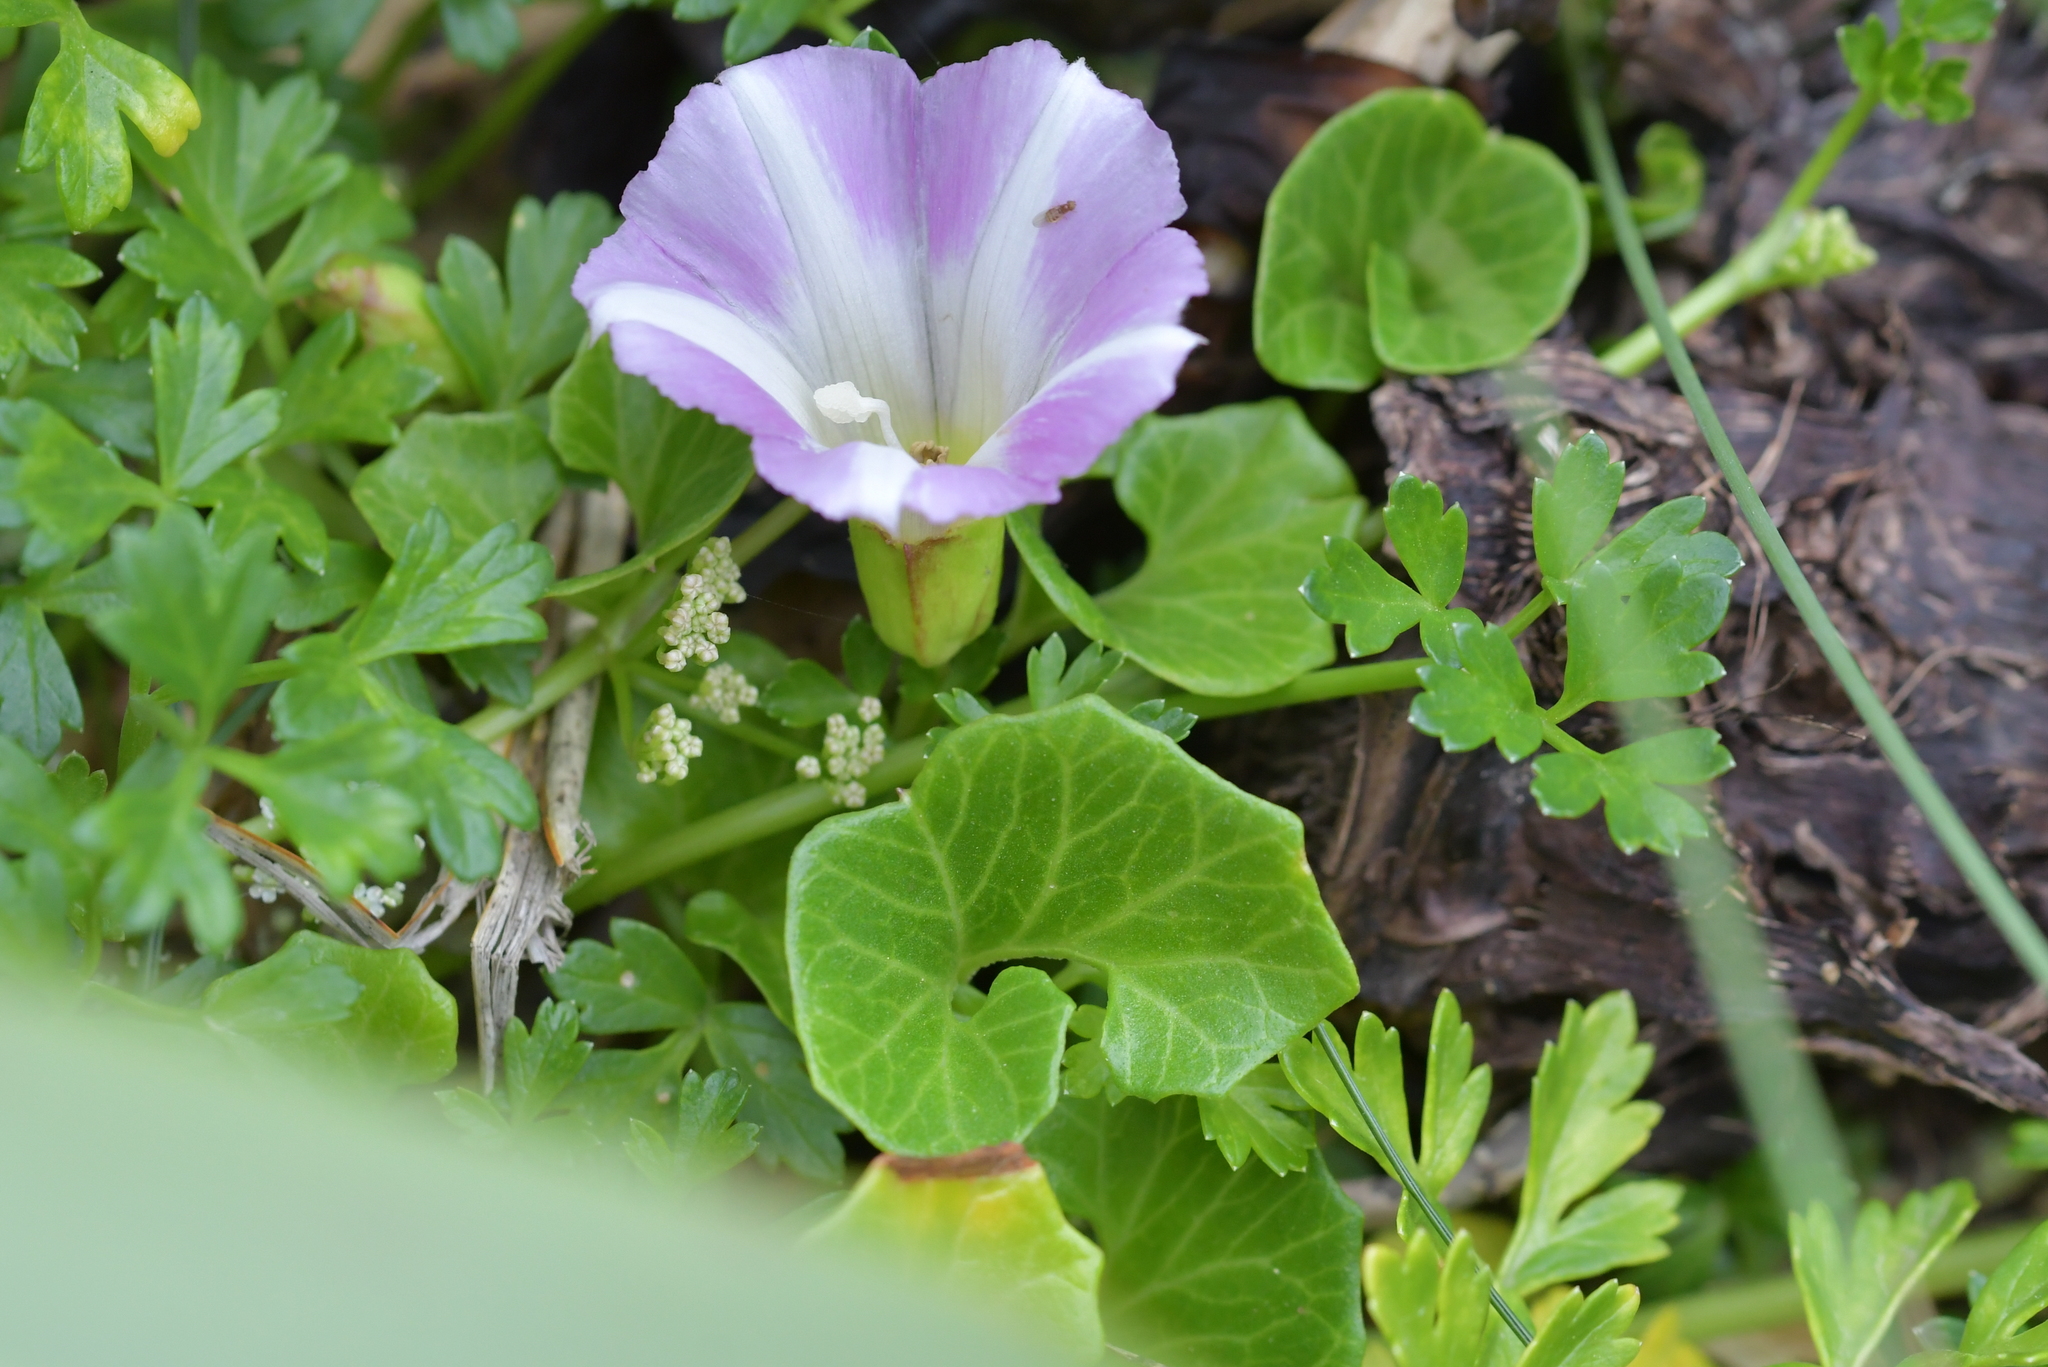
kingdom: Plantae
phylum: Tracheophyta
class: Magnoliopsida
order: Solanales
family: Convolvulaceae
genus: Calystegia
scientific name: Calystegia soldanella
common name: Sea bindweed
